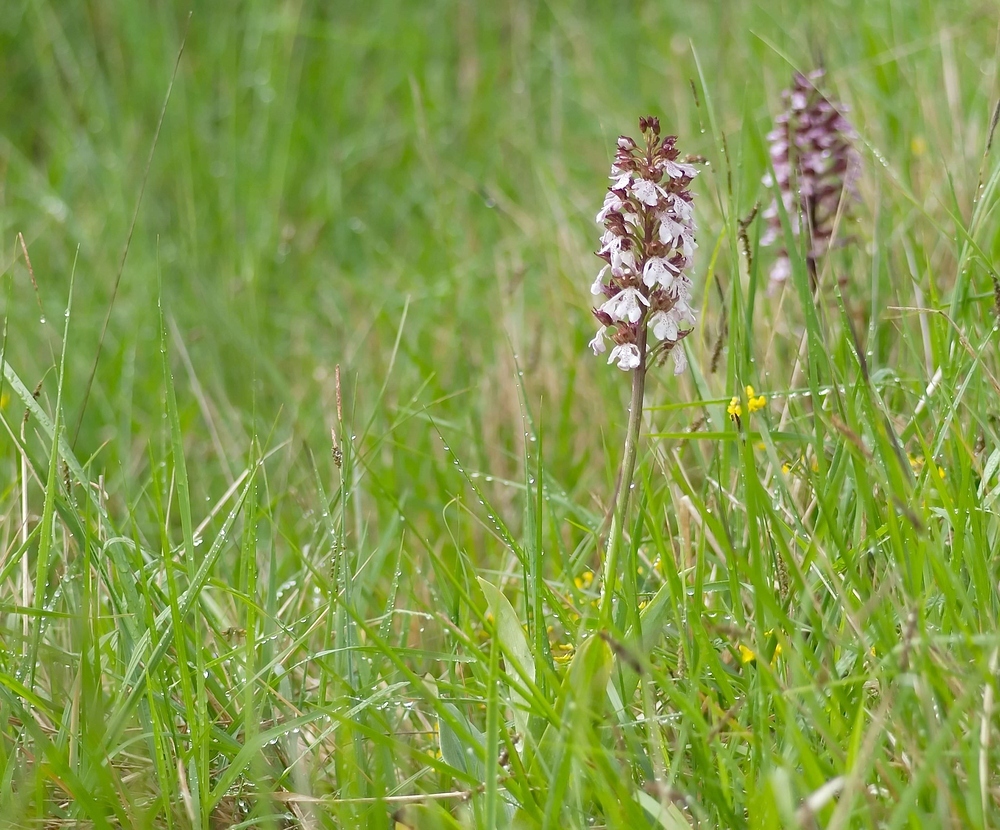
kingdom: Plantae
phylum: Tracheophyta
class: Liliopsida
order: Asparagales
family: Orchidaceae
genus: Orchis
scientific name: Orchis purpurea
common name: Lady orchid
